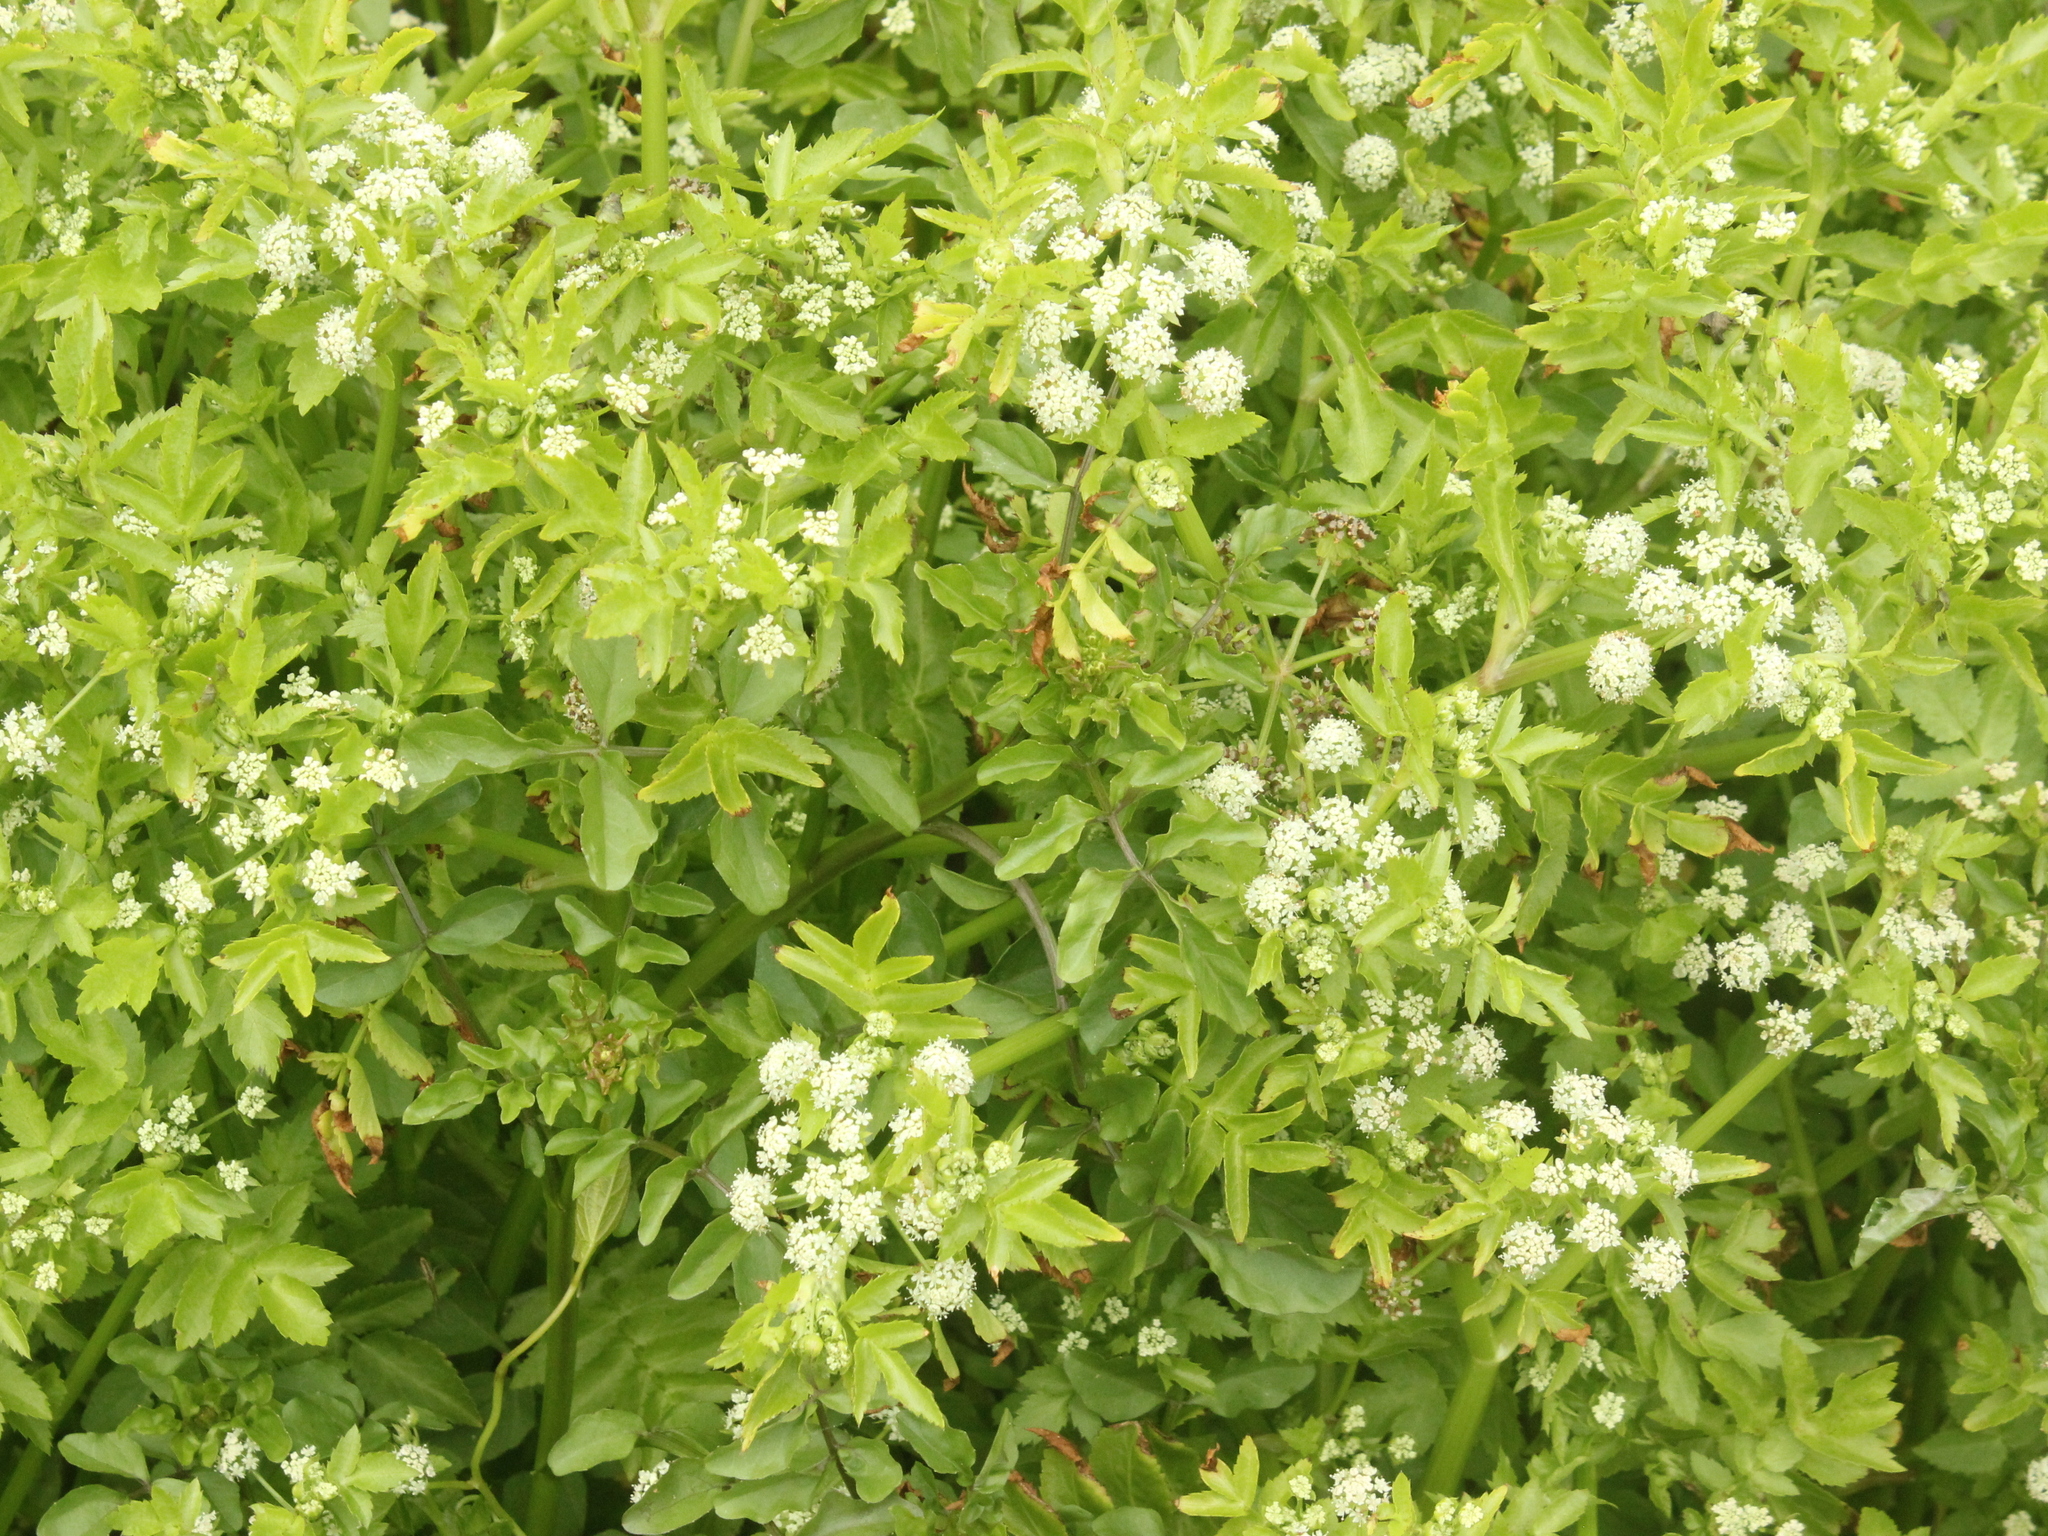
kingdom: Plantae
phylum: Tracheophyta
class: Magnoliopsida
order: Apiales
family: Apiaceae
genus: Helosciadium
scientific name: Helosciadium nodiflorum
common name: Fool's-watercress
